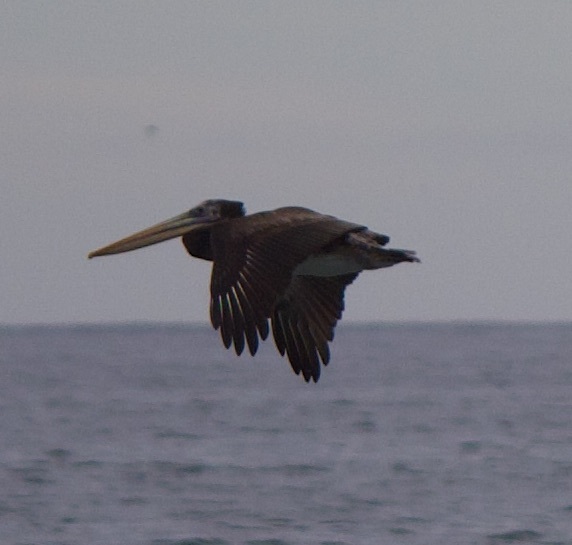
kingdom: Animalia
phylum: Chordata
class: Aves
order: Pelecaniformes
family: Pelecanidae
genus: Pelecanus
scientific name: Pelecanus thagus
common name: Peruvian pelican
